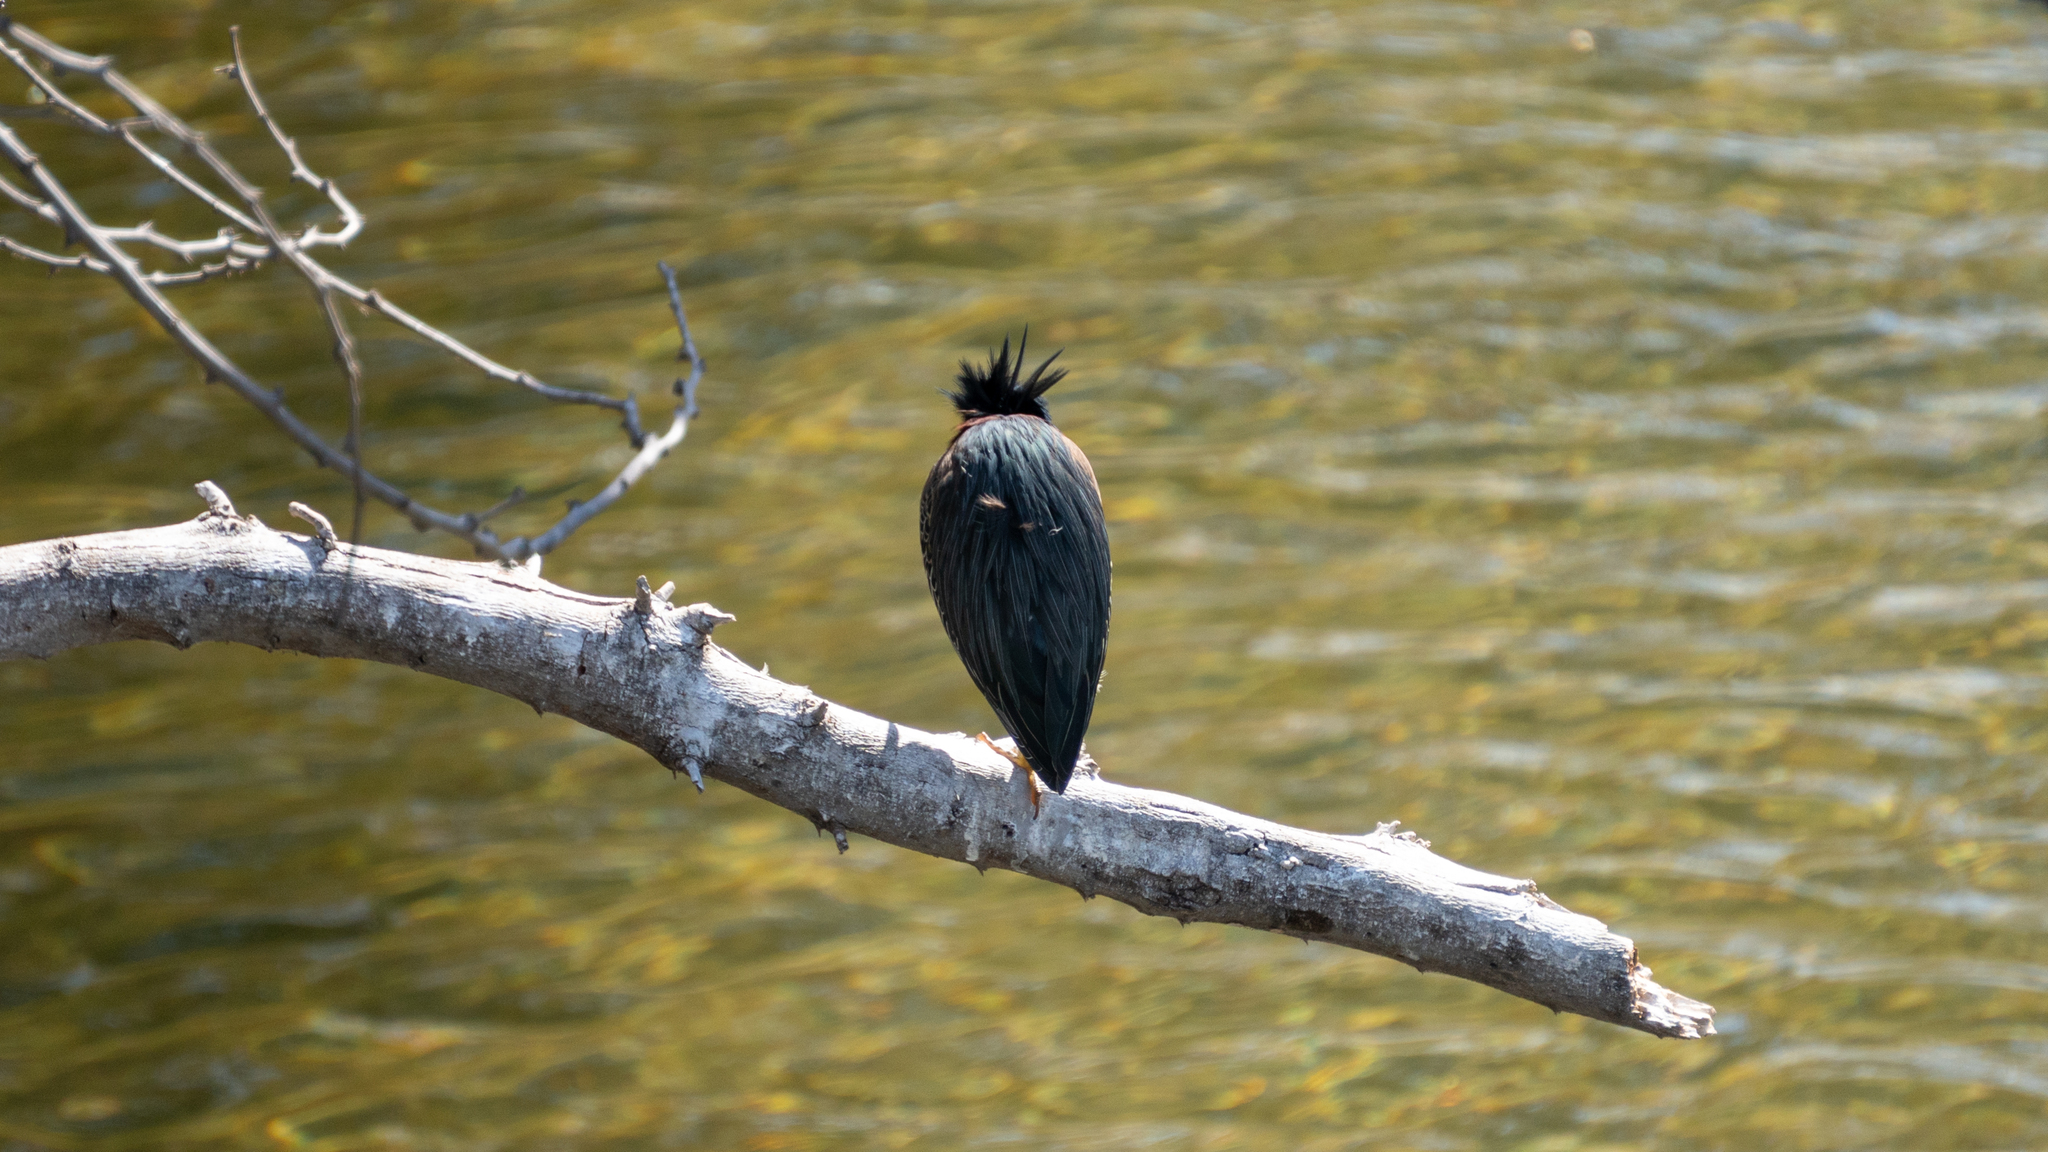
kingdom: Animalia
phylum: Chordata
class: Aves
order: Pelecaniformes
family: Ardeidae
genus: Butorides
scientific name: Butorides virescens
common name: Green heron
